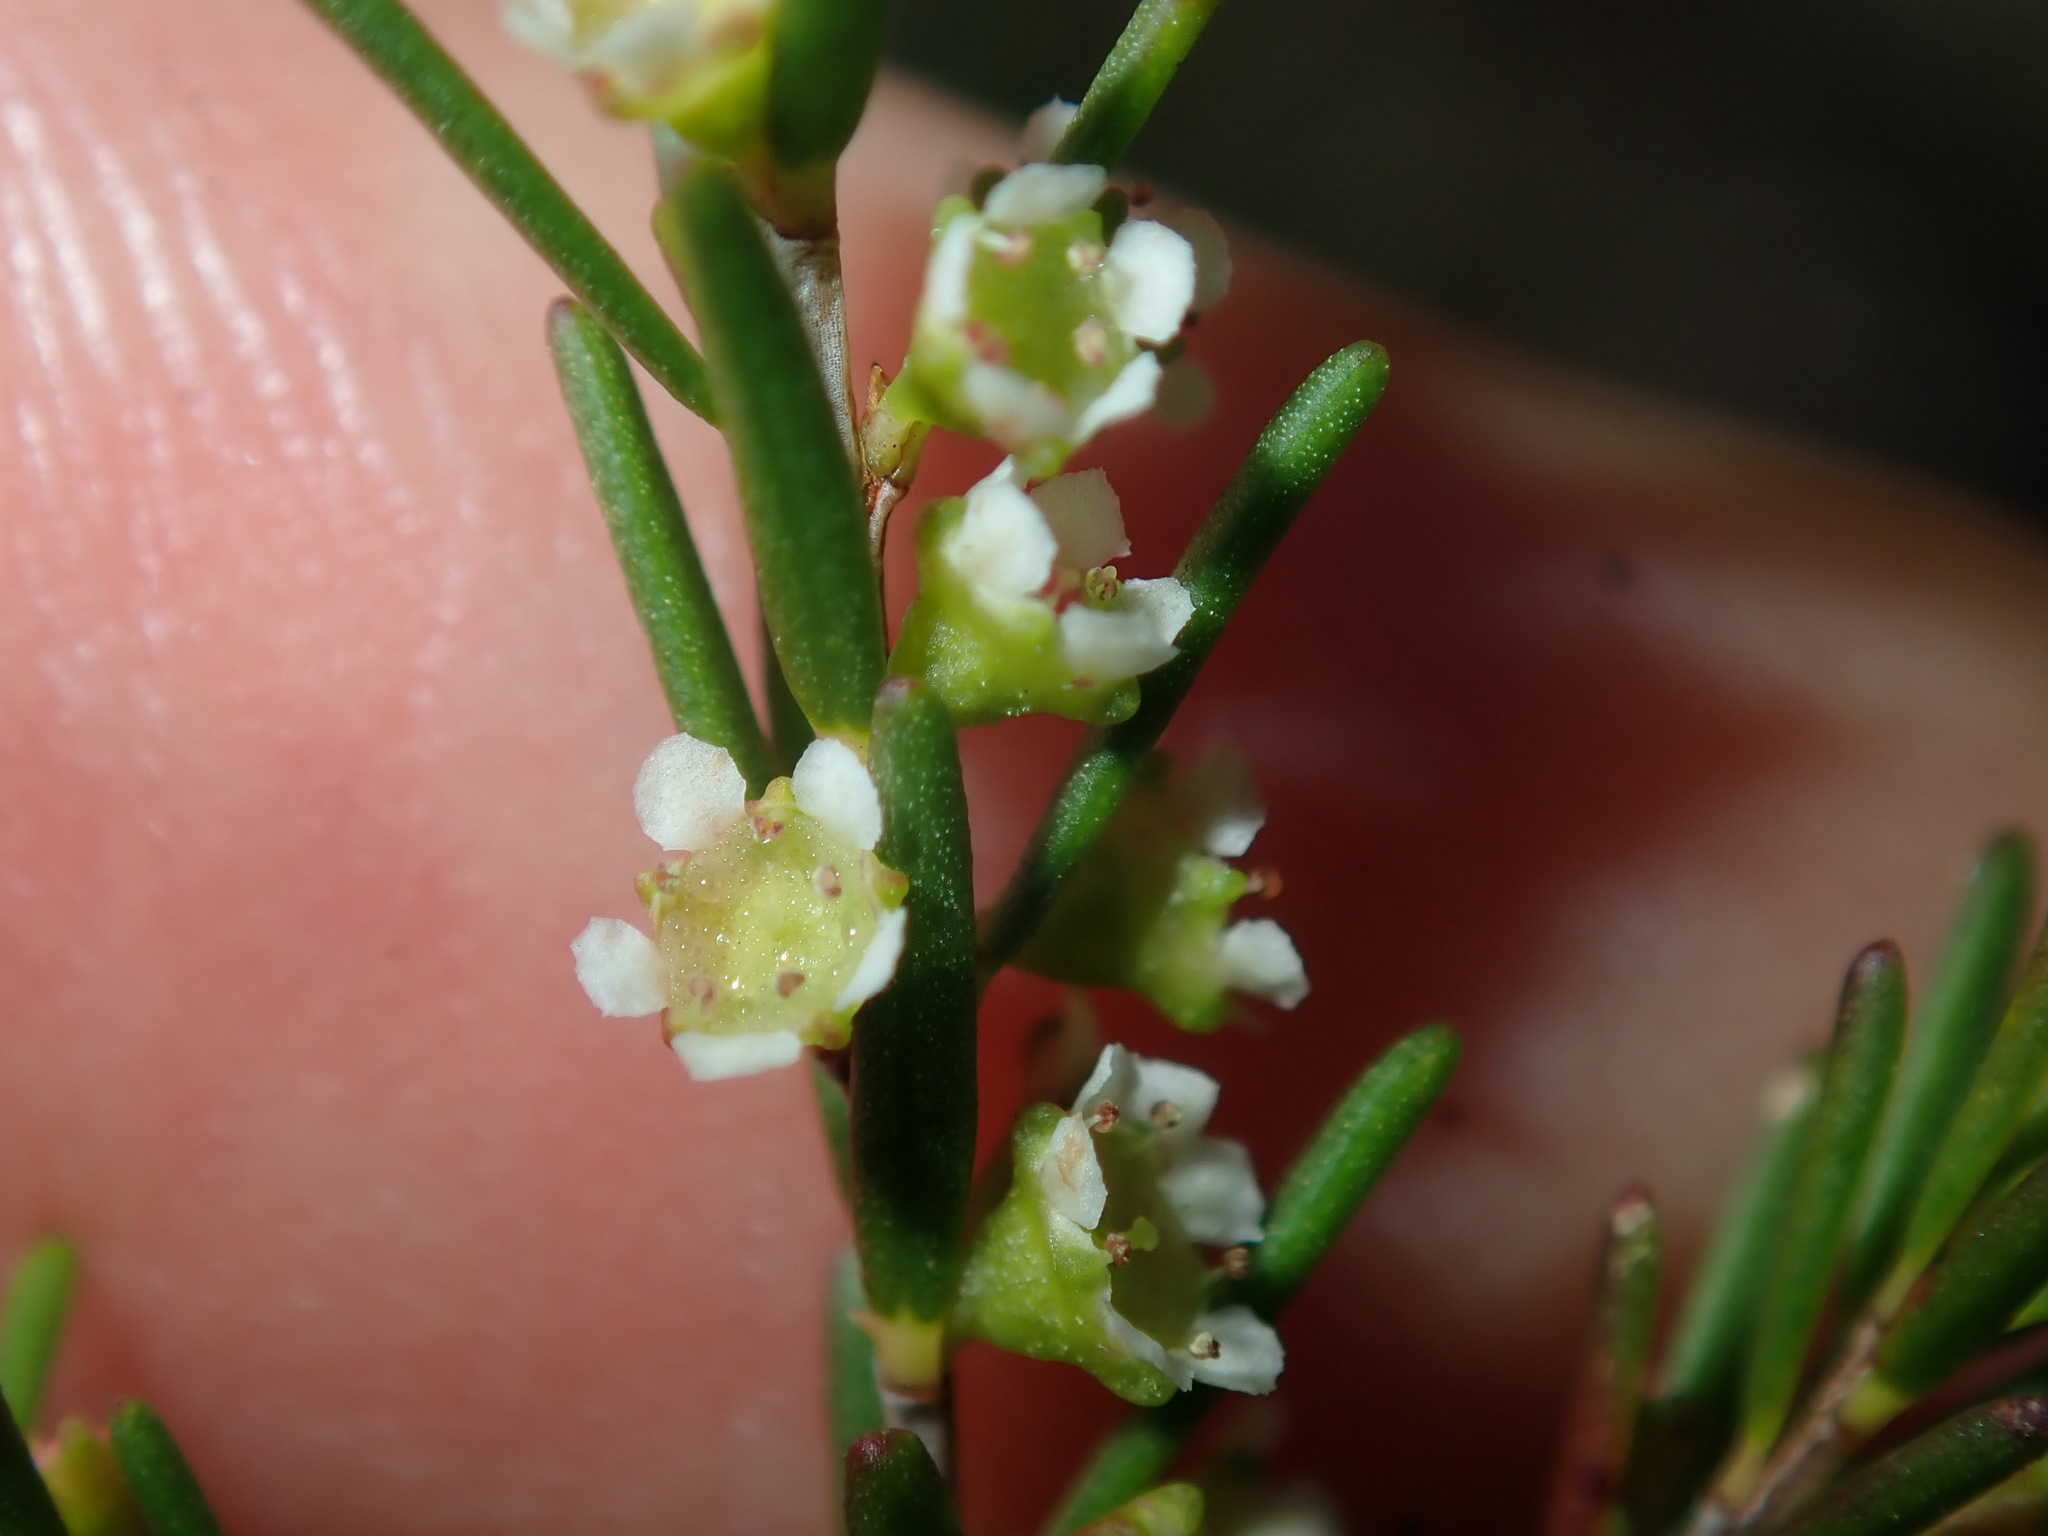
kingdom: Plantae
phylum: Tracheophyta
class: Magnoliopsida
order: Myrtales
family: Myrtaceae
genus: Ochrosperma
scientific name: Ochrosperma lineare
